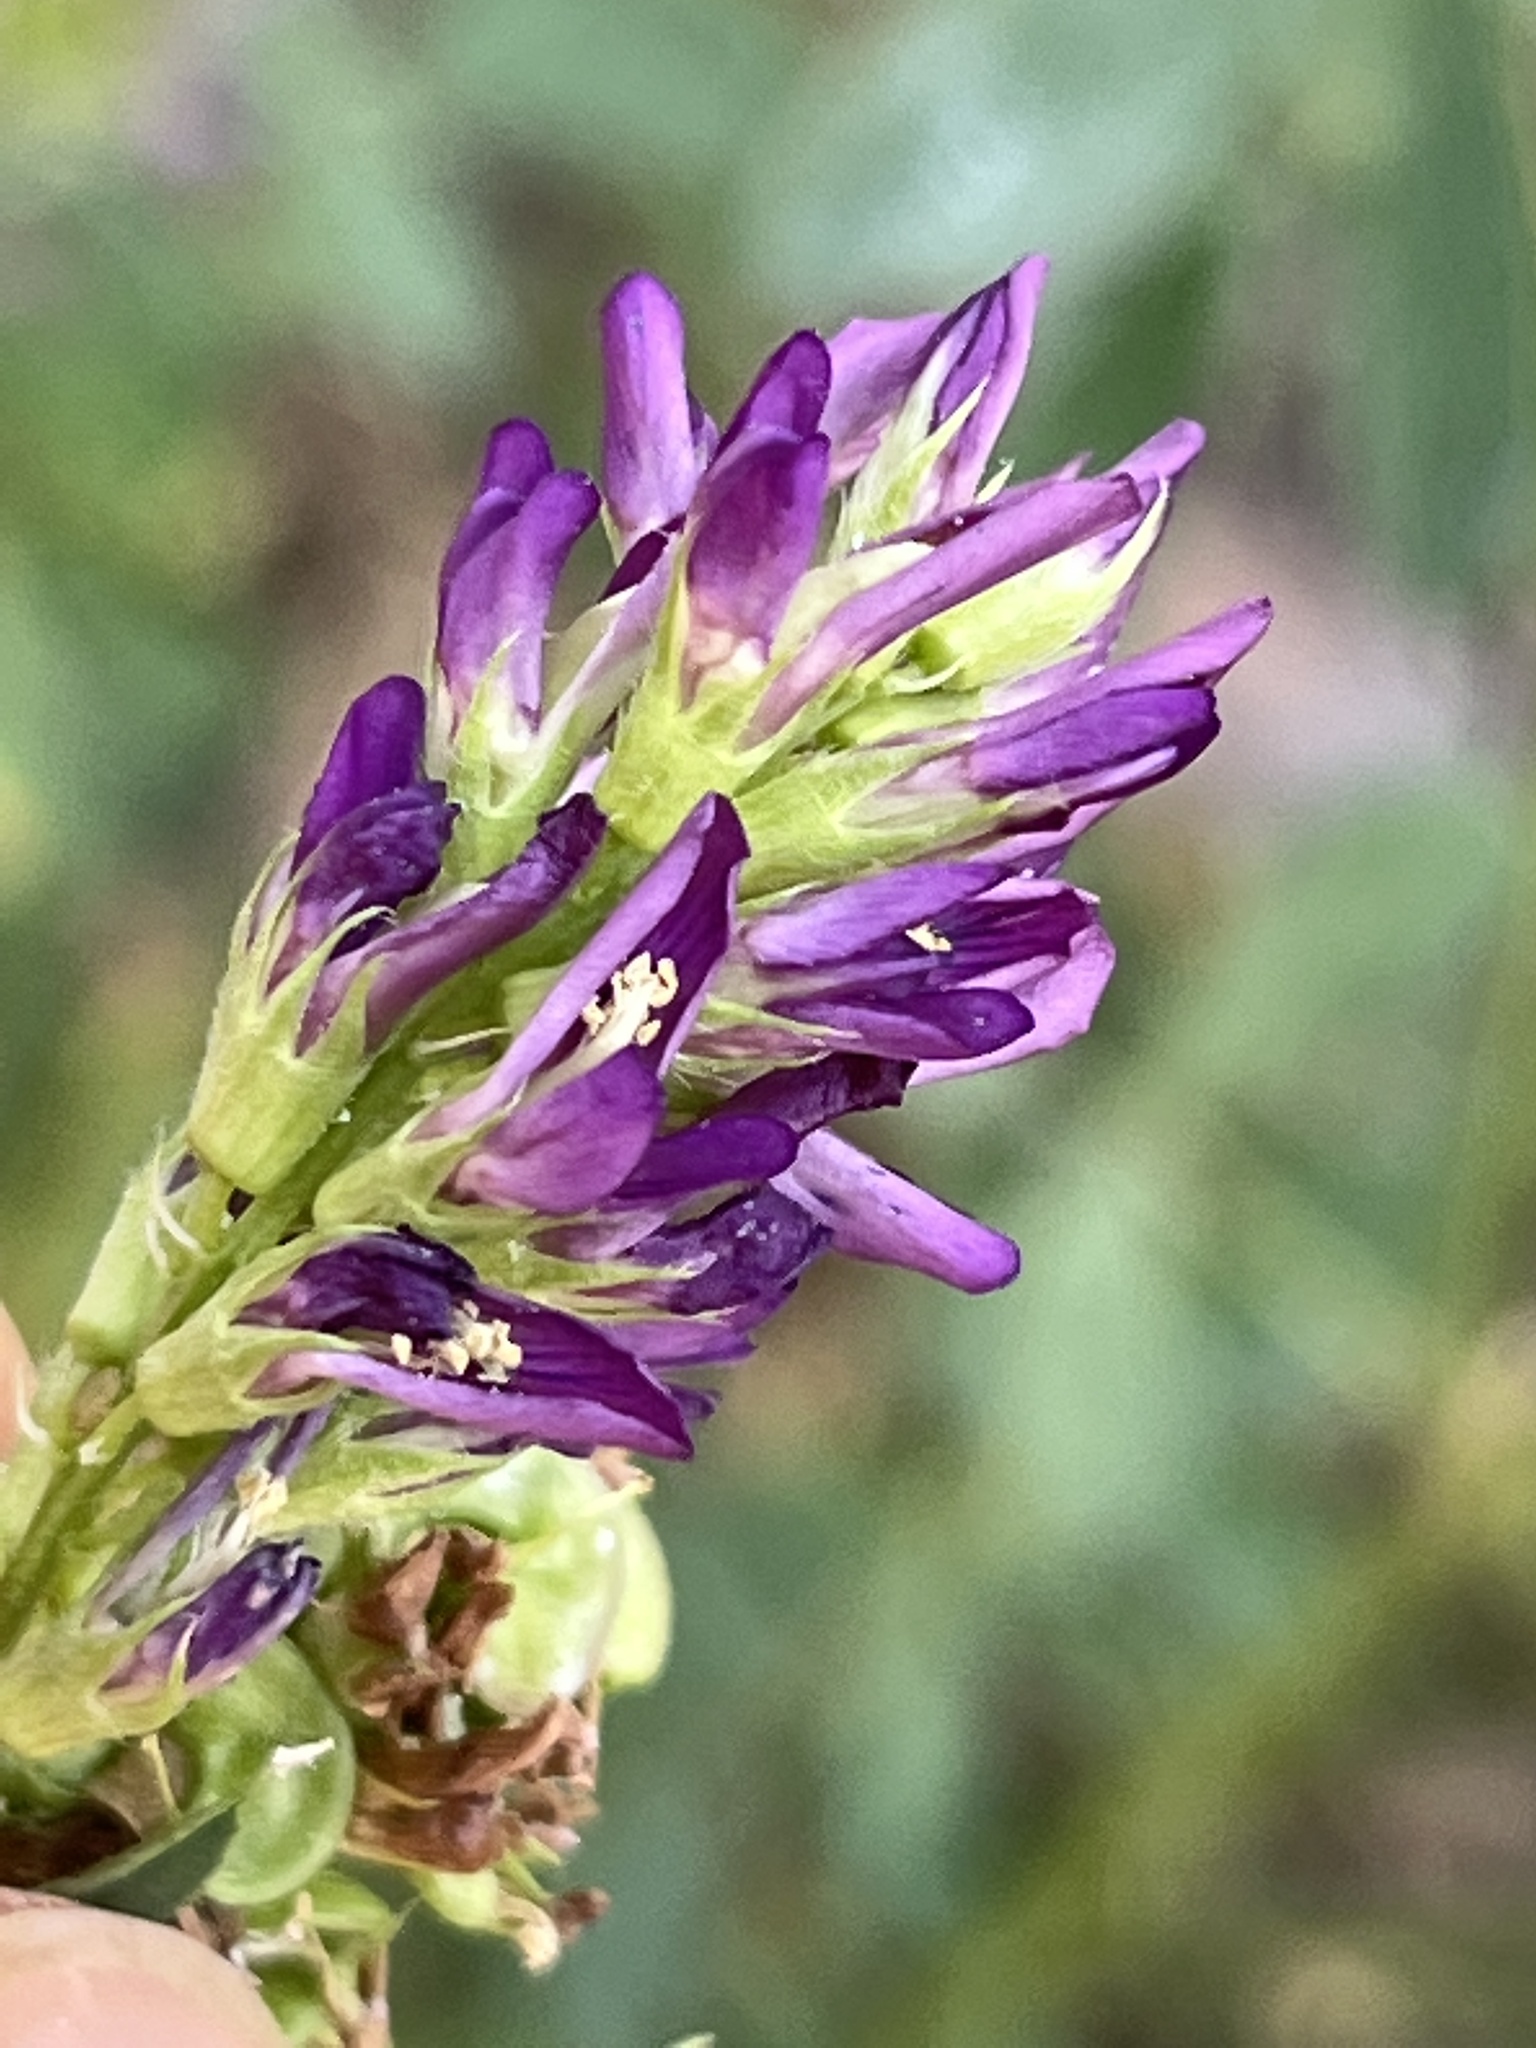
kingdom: Plantae
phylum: Tracheophyta
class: Magnoliopsida
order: Fabales
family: Fabaceae
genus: Medicago
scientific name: Medicago sativa
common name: Alfalfa
